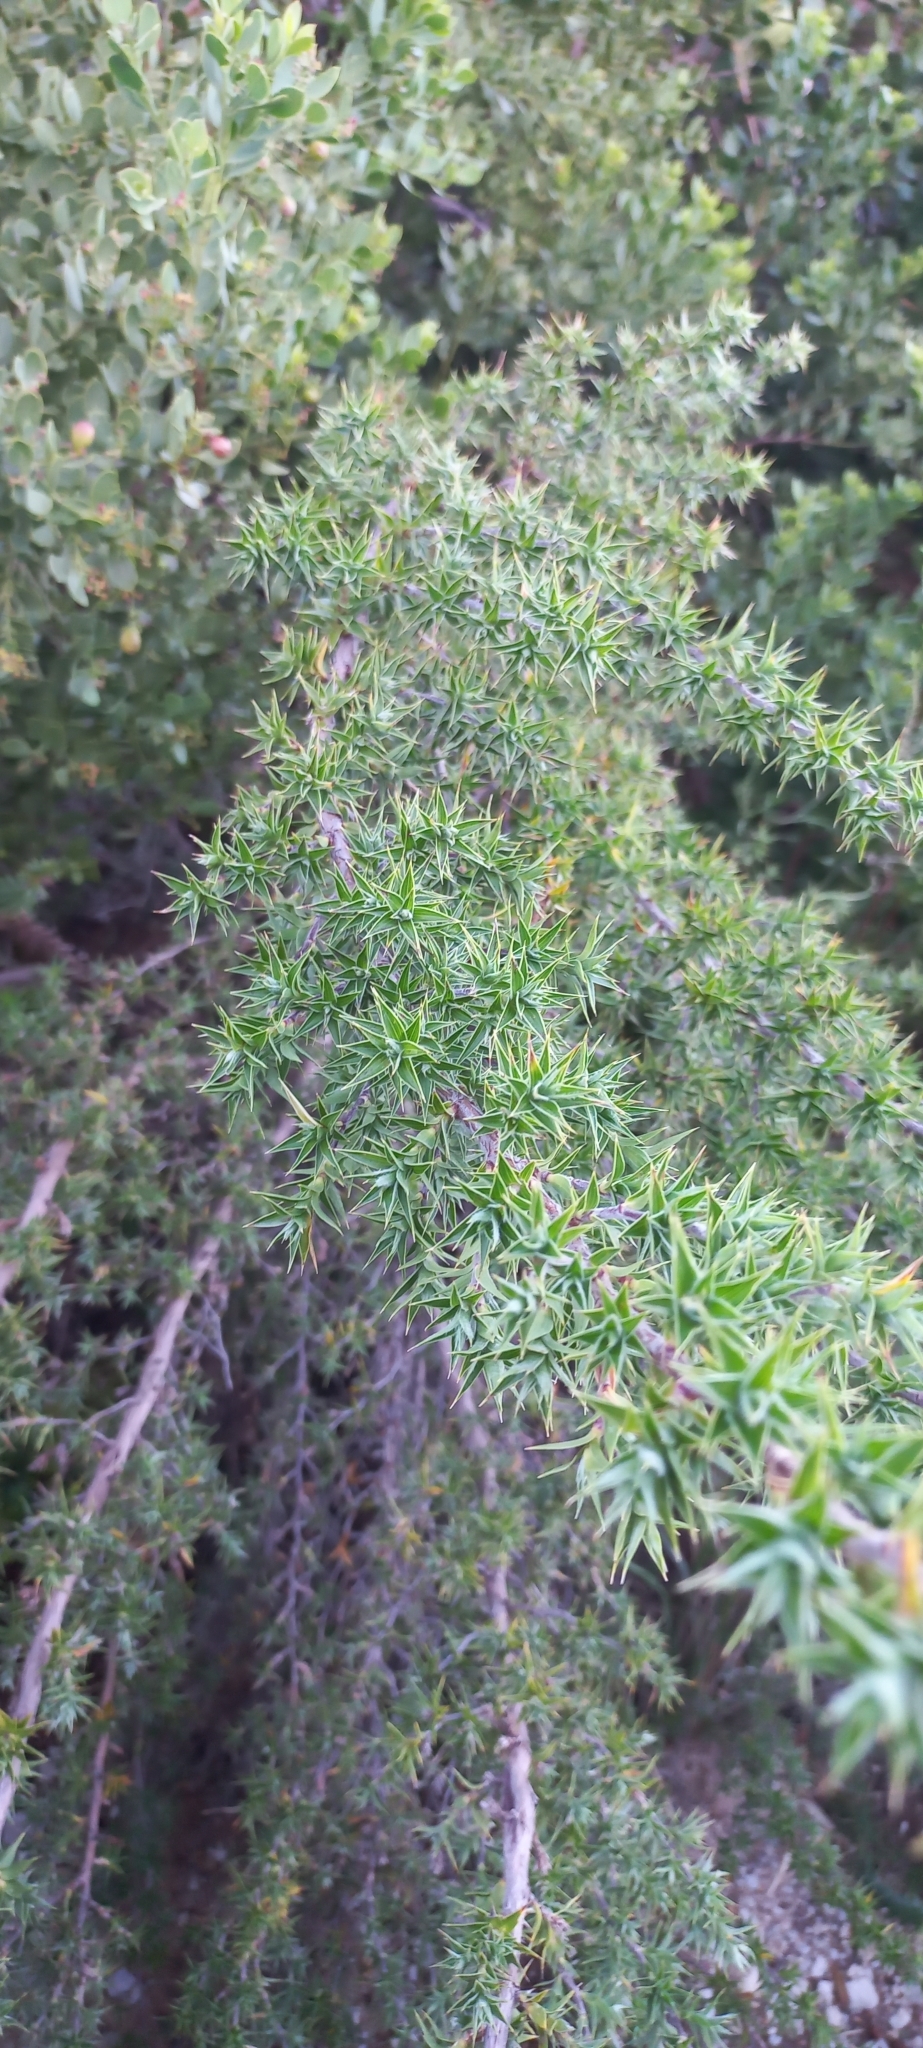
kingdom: Plantae
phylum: Tracheophyta
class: Magnoliopsida
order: Rosales
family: Rosaceae
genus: Cliffortia
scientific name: Cliffortia ruscifolia
